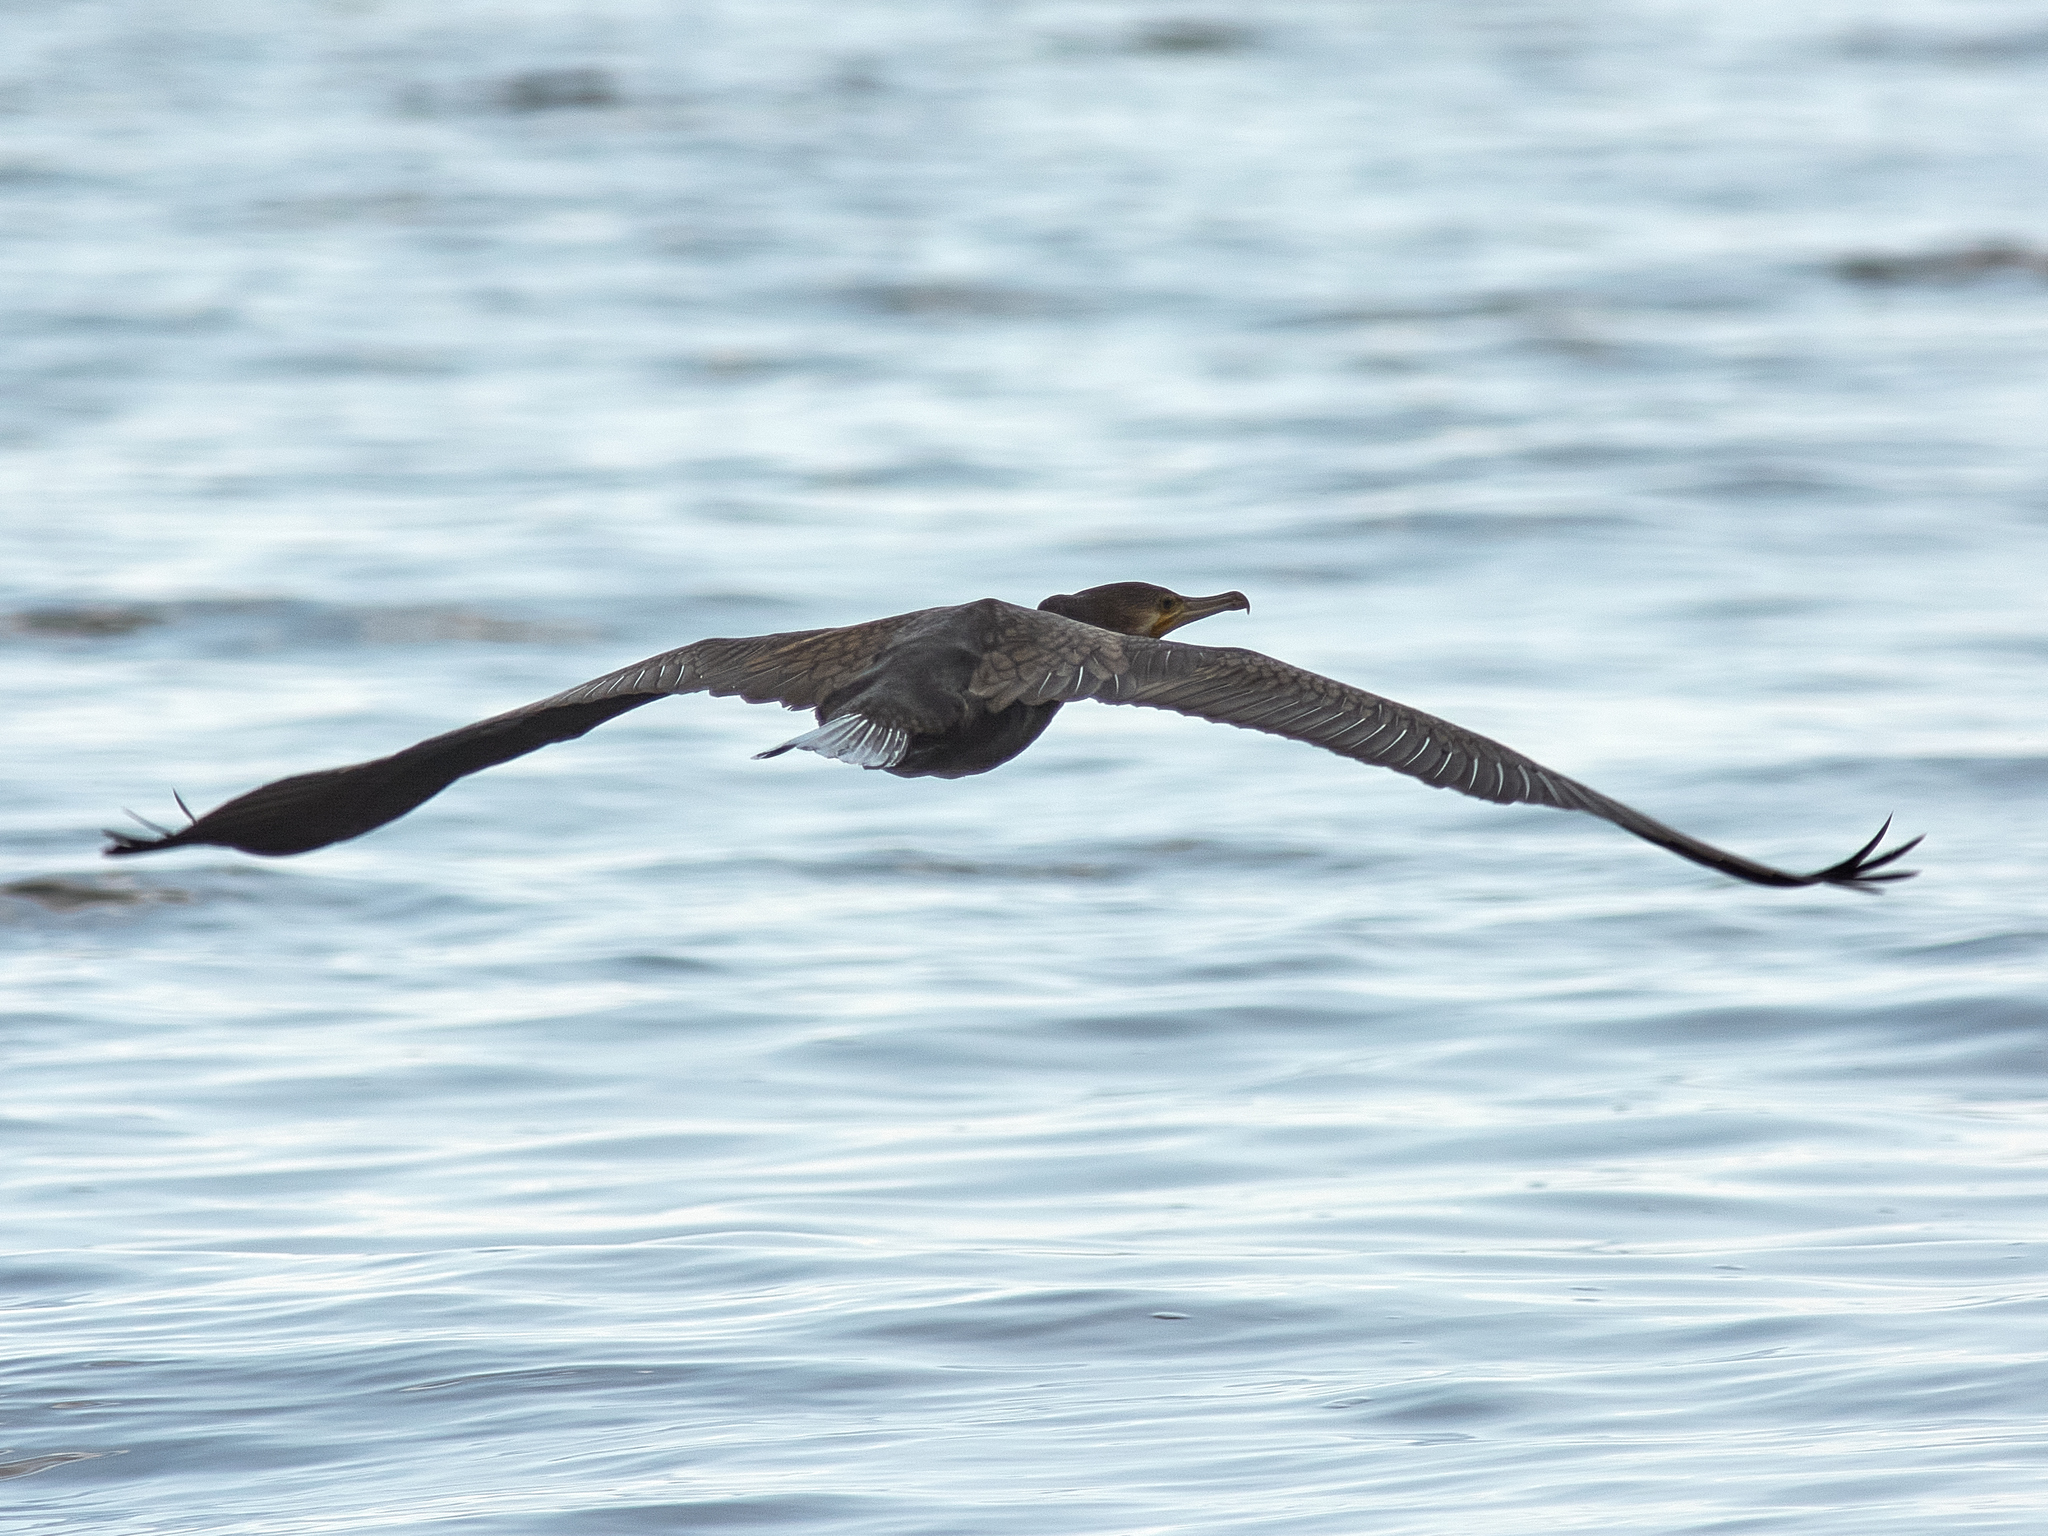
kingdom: Animalia
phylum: Chordata
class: Aves
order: Suliformes
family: Phalacrocoracidae
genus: Phalacrocorax
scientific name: Phalacrocorax carbo
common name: Great cormorant
